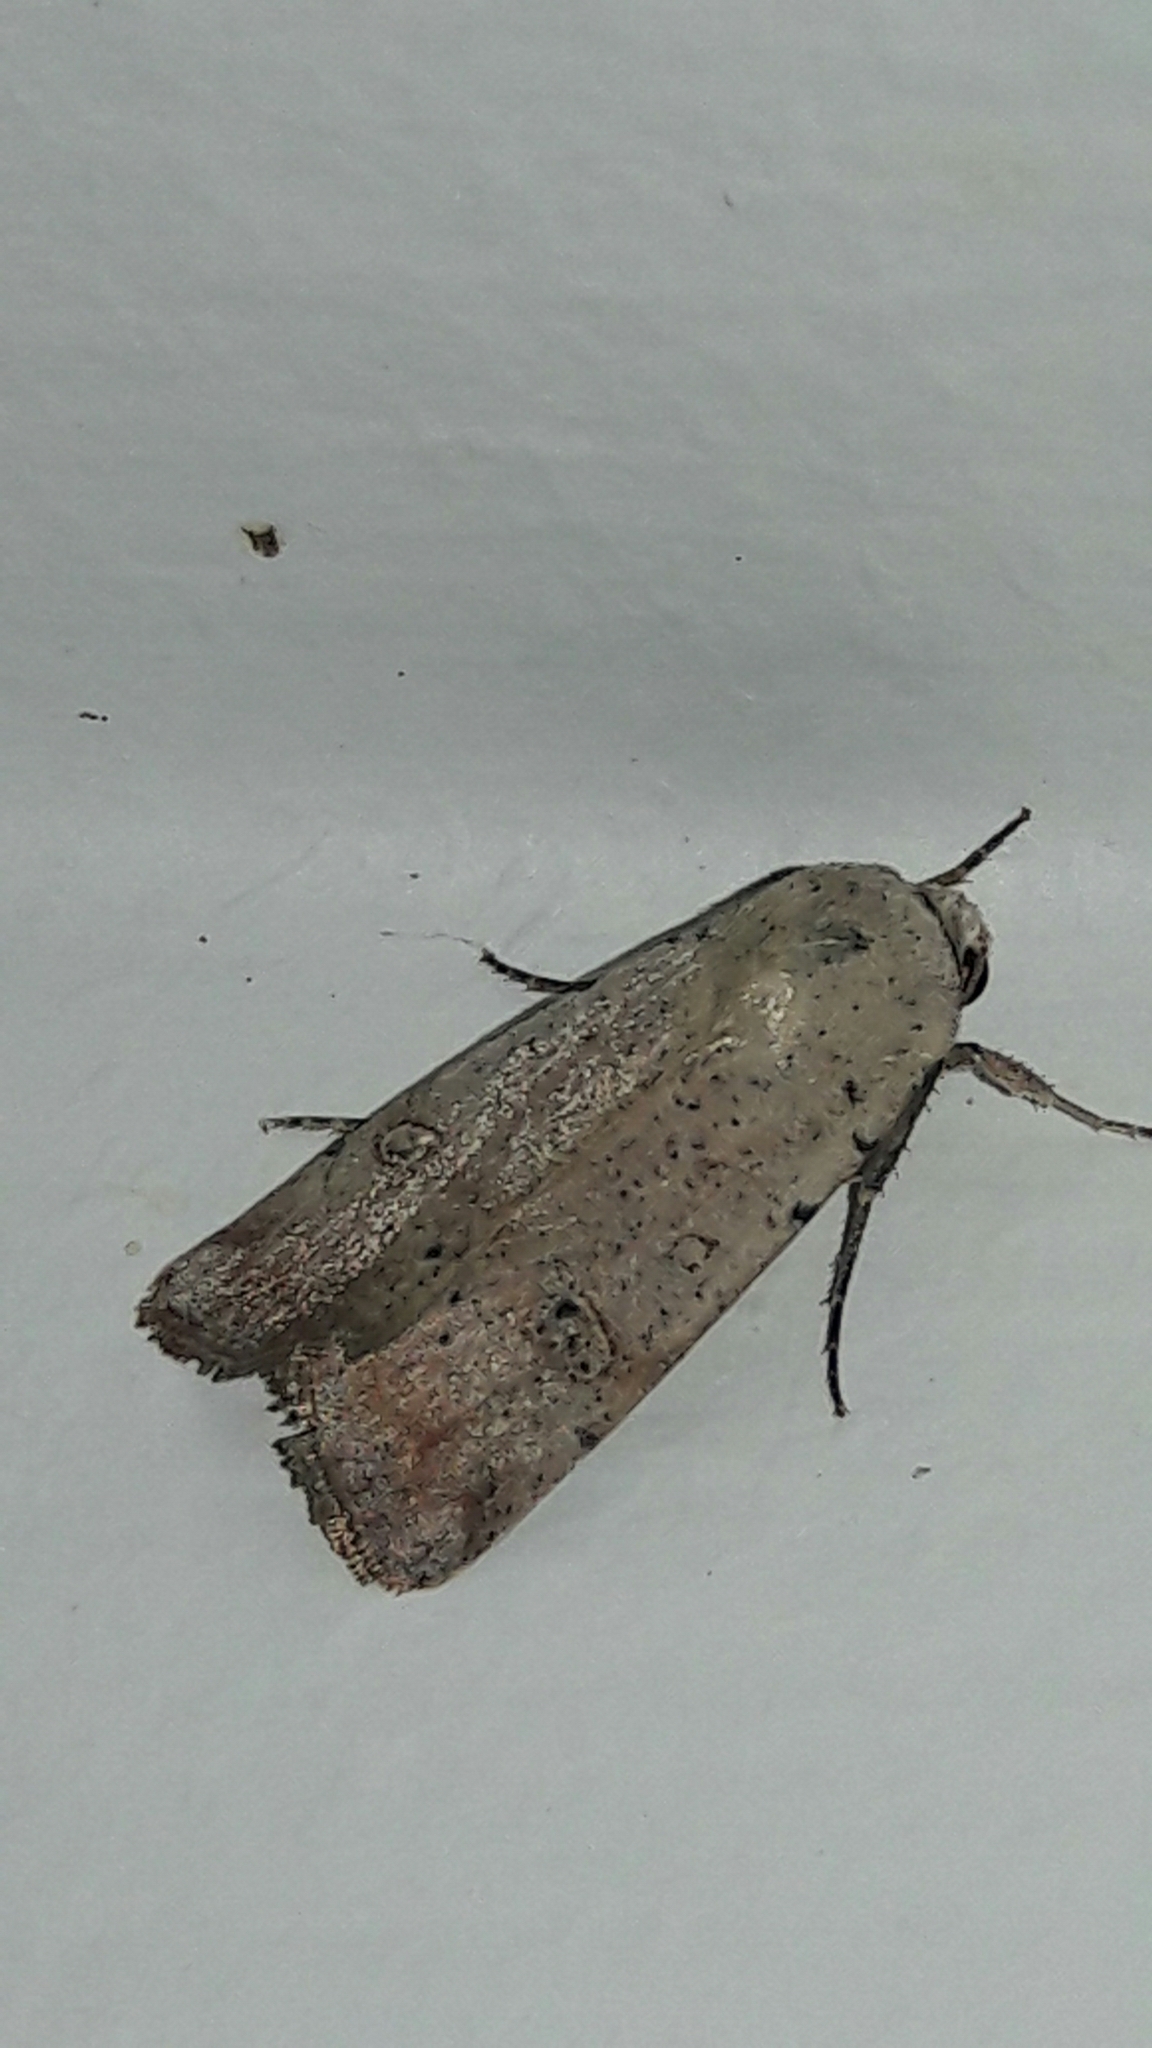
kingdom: Animalia
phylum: Arthropoda
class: Insecta
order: Lepidoptera
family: Noctuidae
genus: Anicla
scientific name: Anicla infecta
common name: Green cutworm
